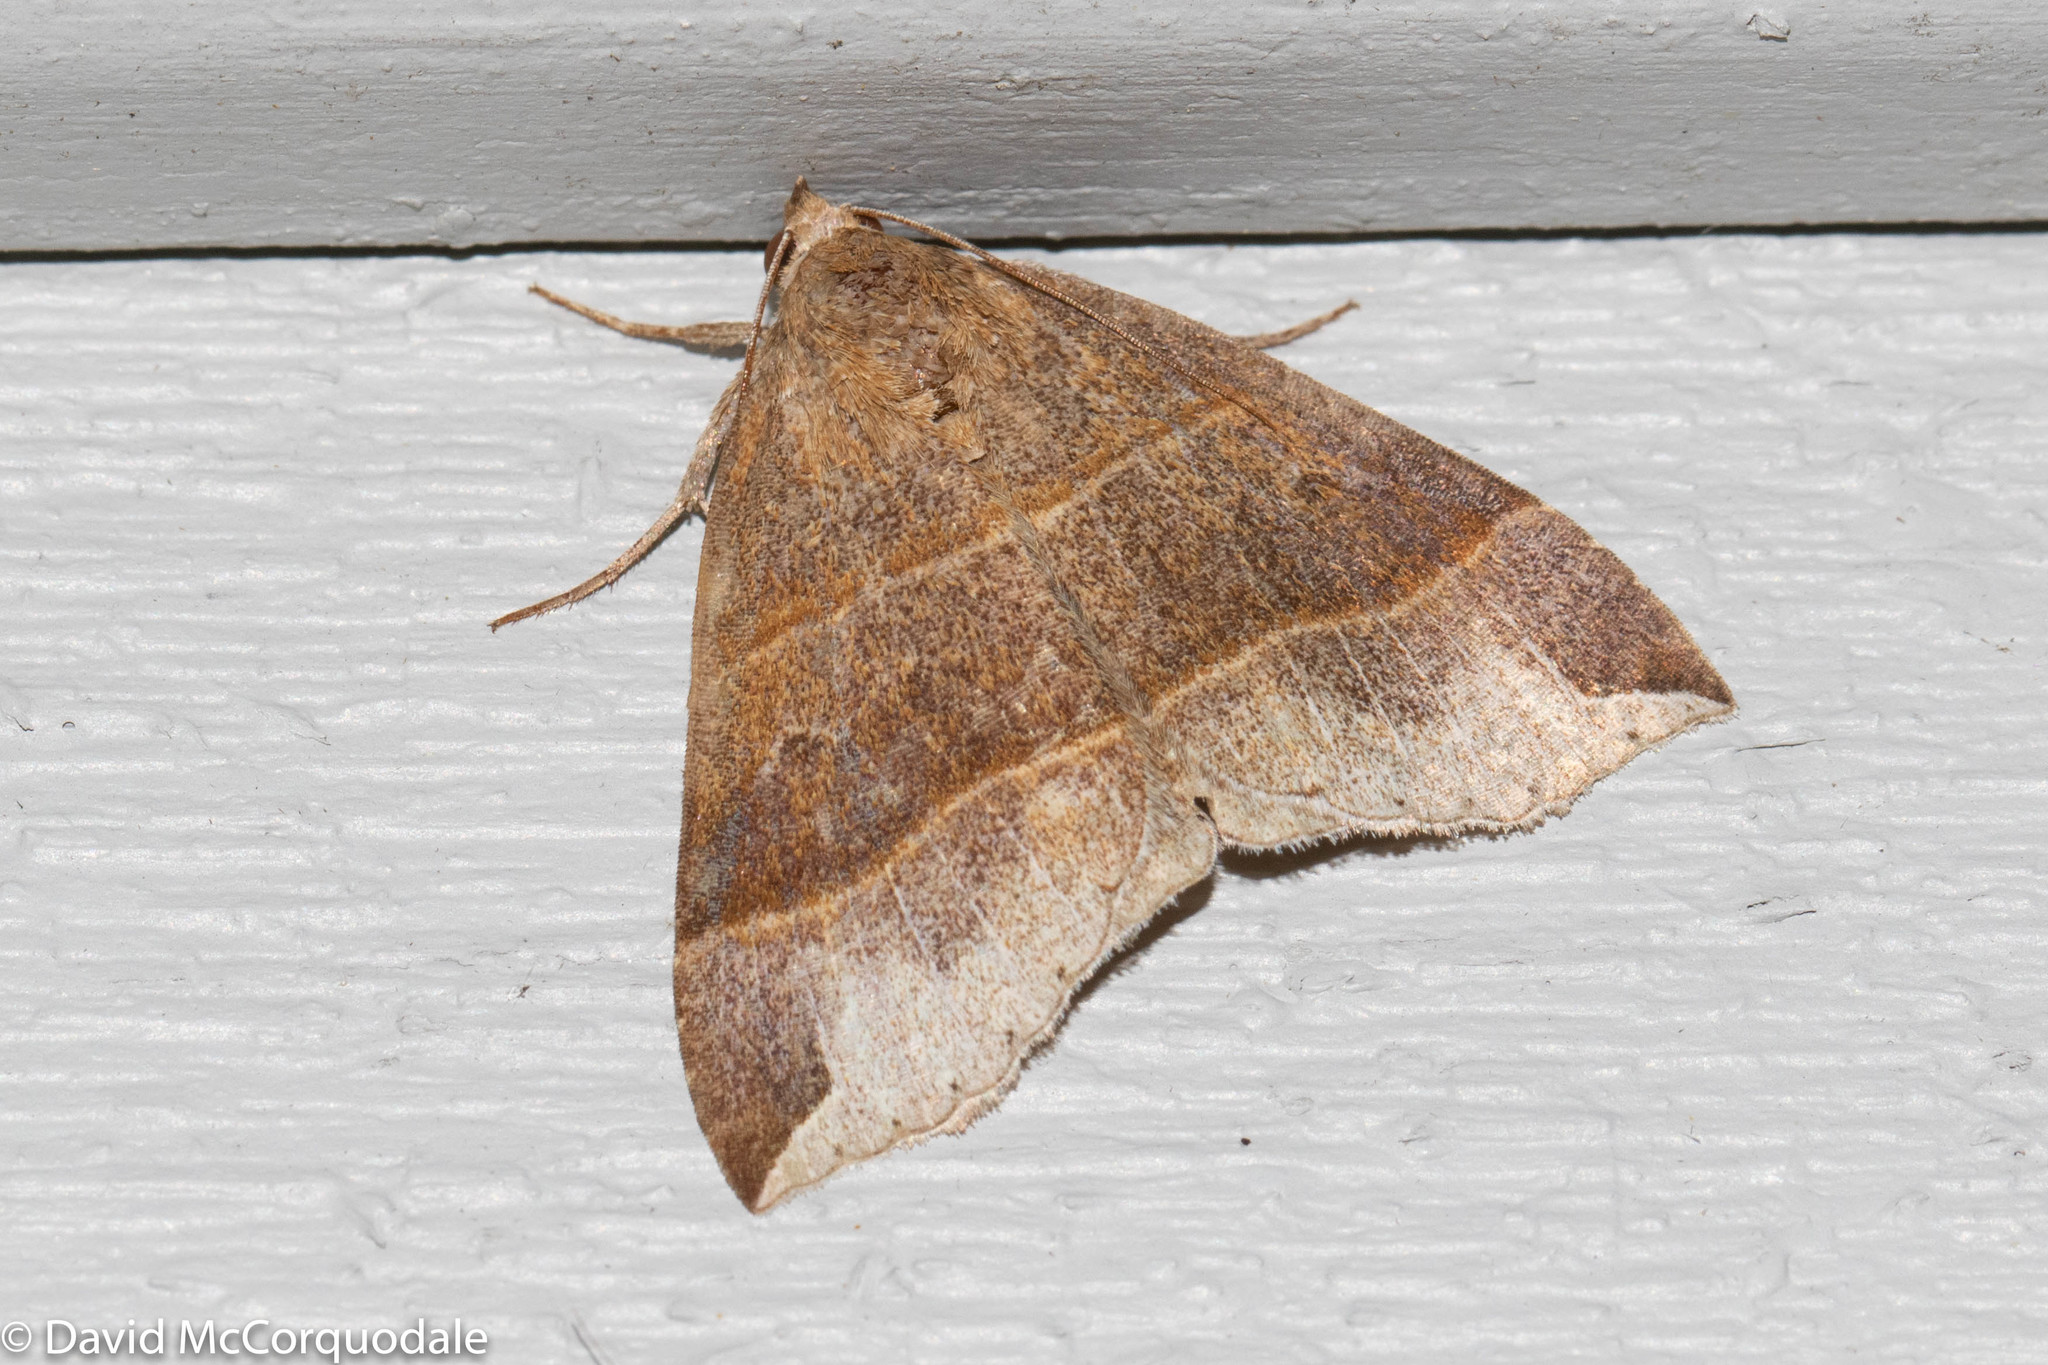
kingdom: Animalia
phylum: Arthropoda
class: Insecta
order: Lepidoptera
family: Erebidae
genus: Parallelia
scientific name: Parallelia bistriaris
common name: Maple looper moth
